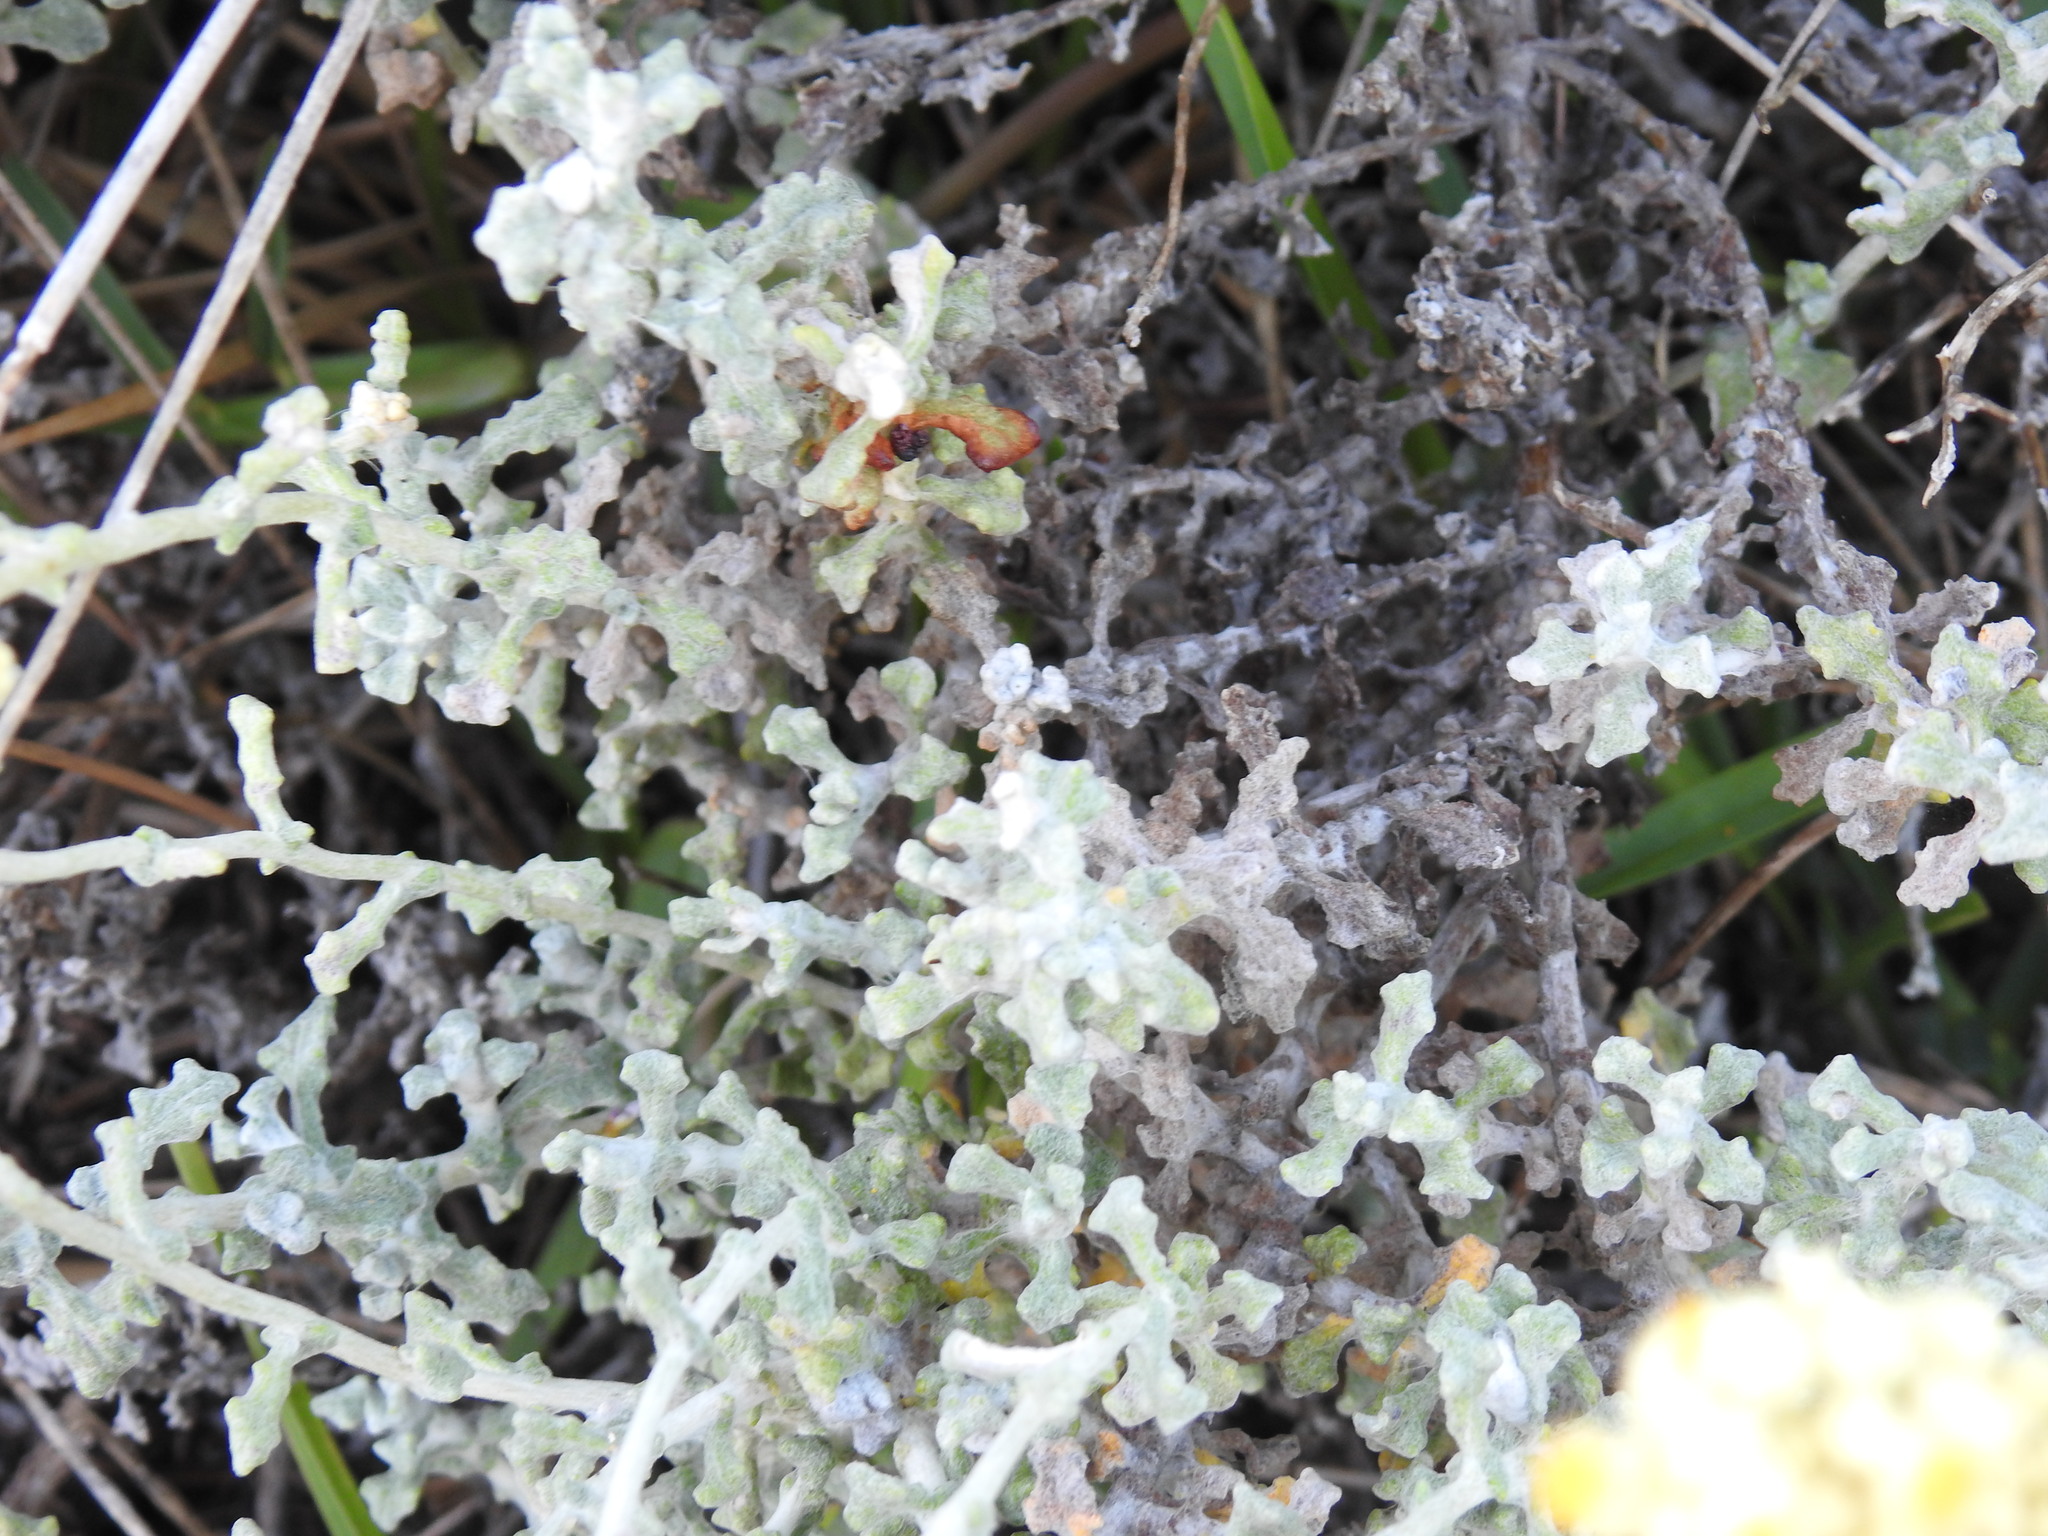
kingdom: Plantae
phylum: Tracheophyta
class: Magnoliopsida
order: Asterales
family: Asteraceae
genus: Helichrysum
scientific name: Helichrysum patulum
